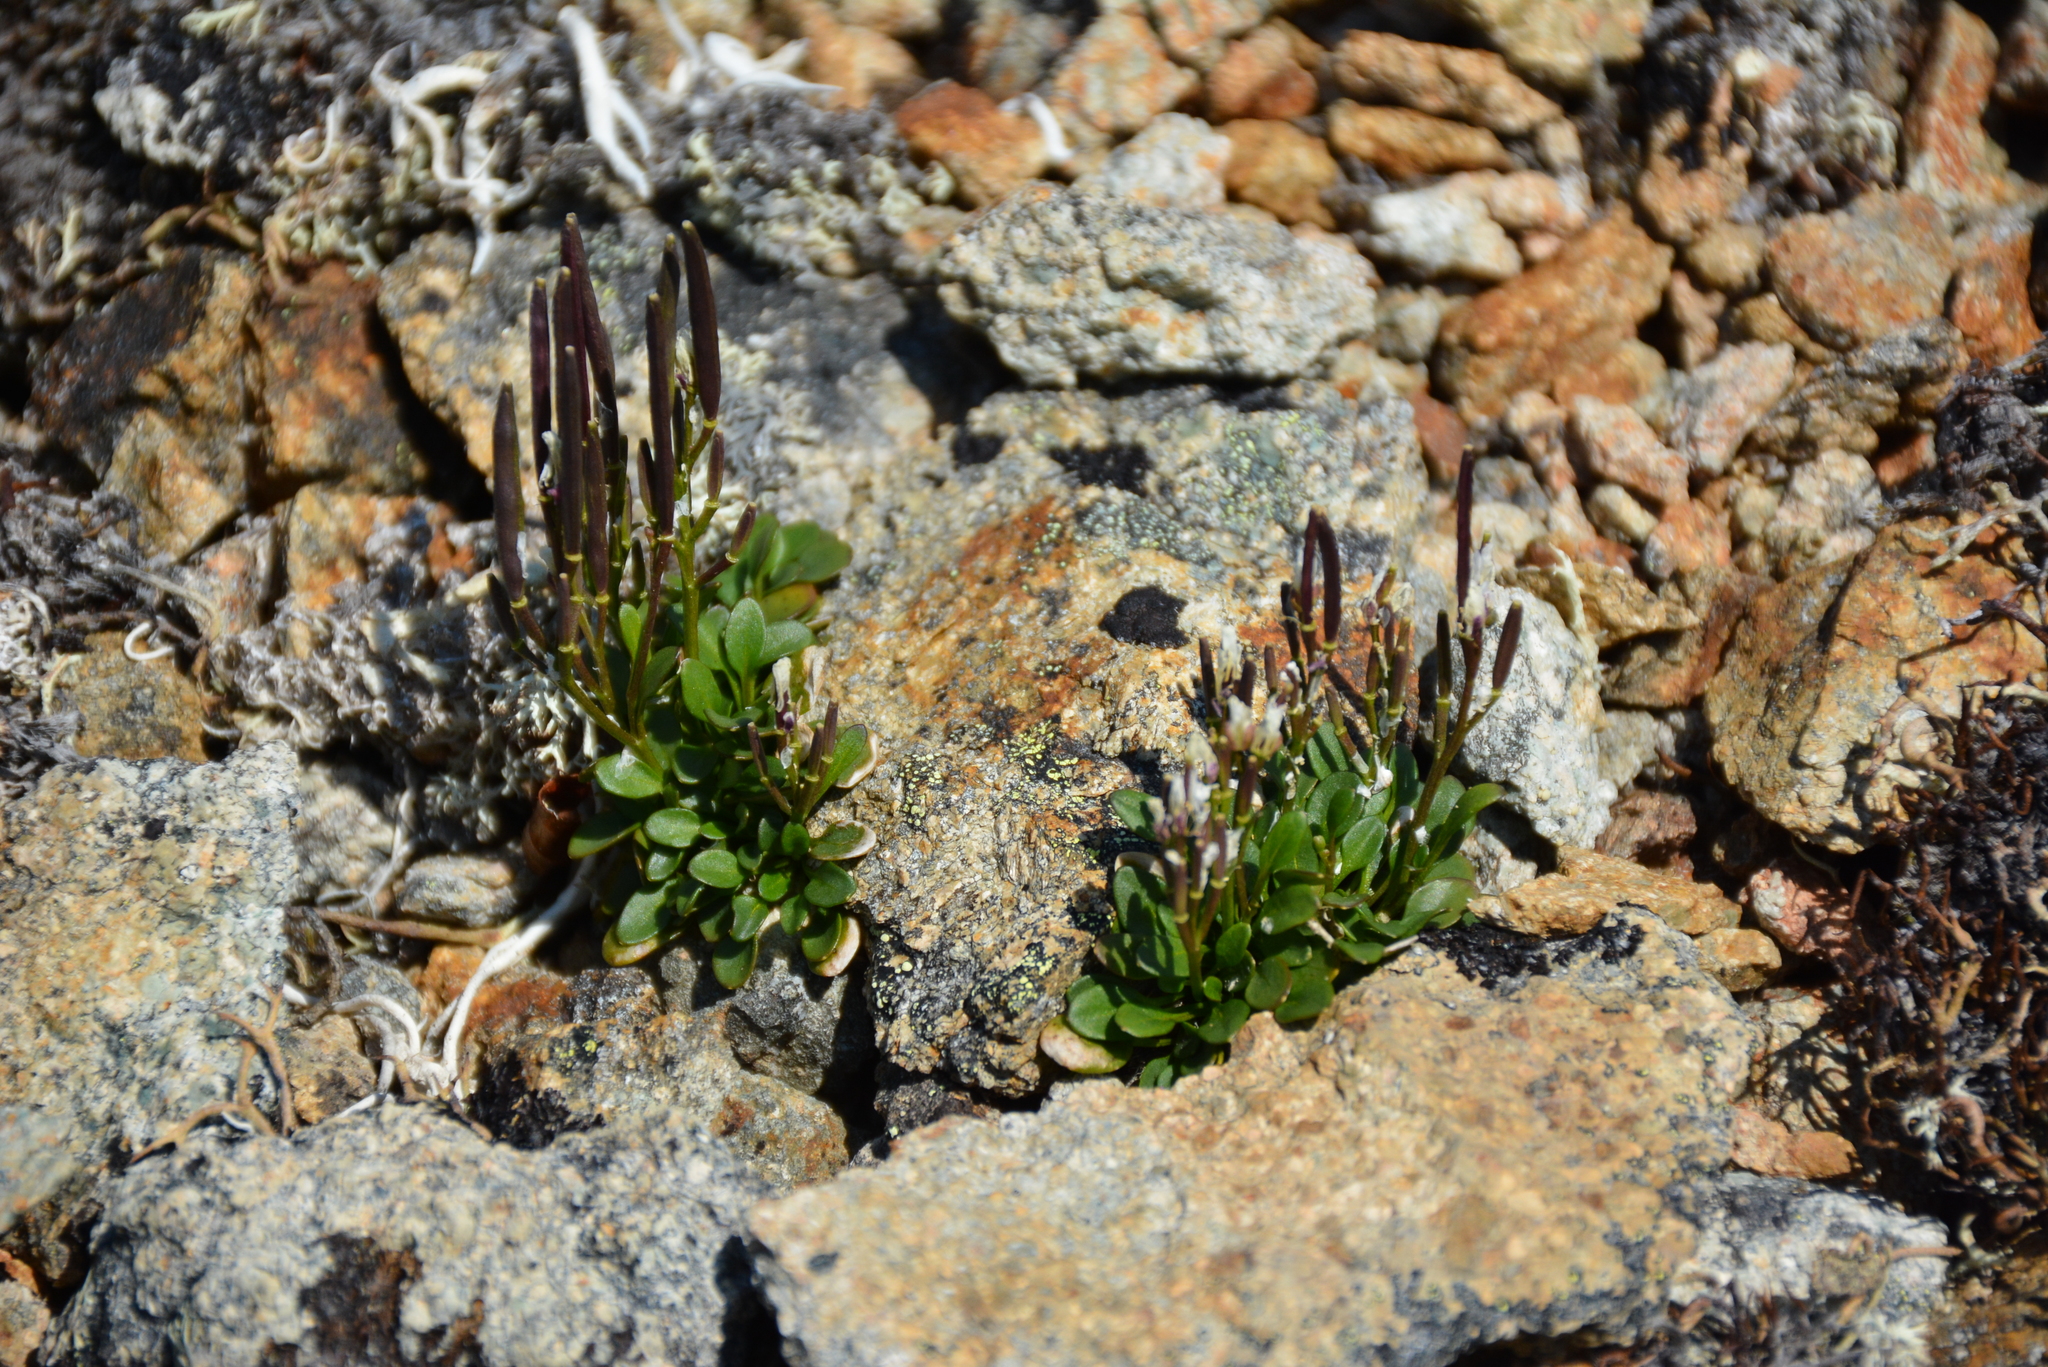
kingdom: Plantae
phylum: Tracheophyta
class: Magnoliopsida
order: Brassicales
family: Brassicaceae
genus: Cardamine
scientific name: Cardamine bellidifolia
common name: Alpine bittercress
